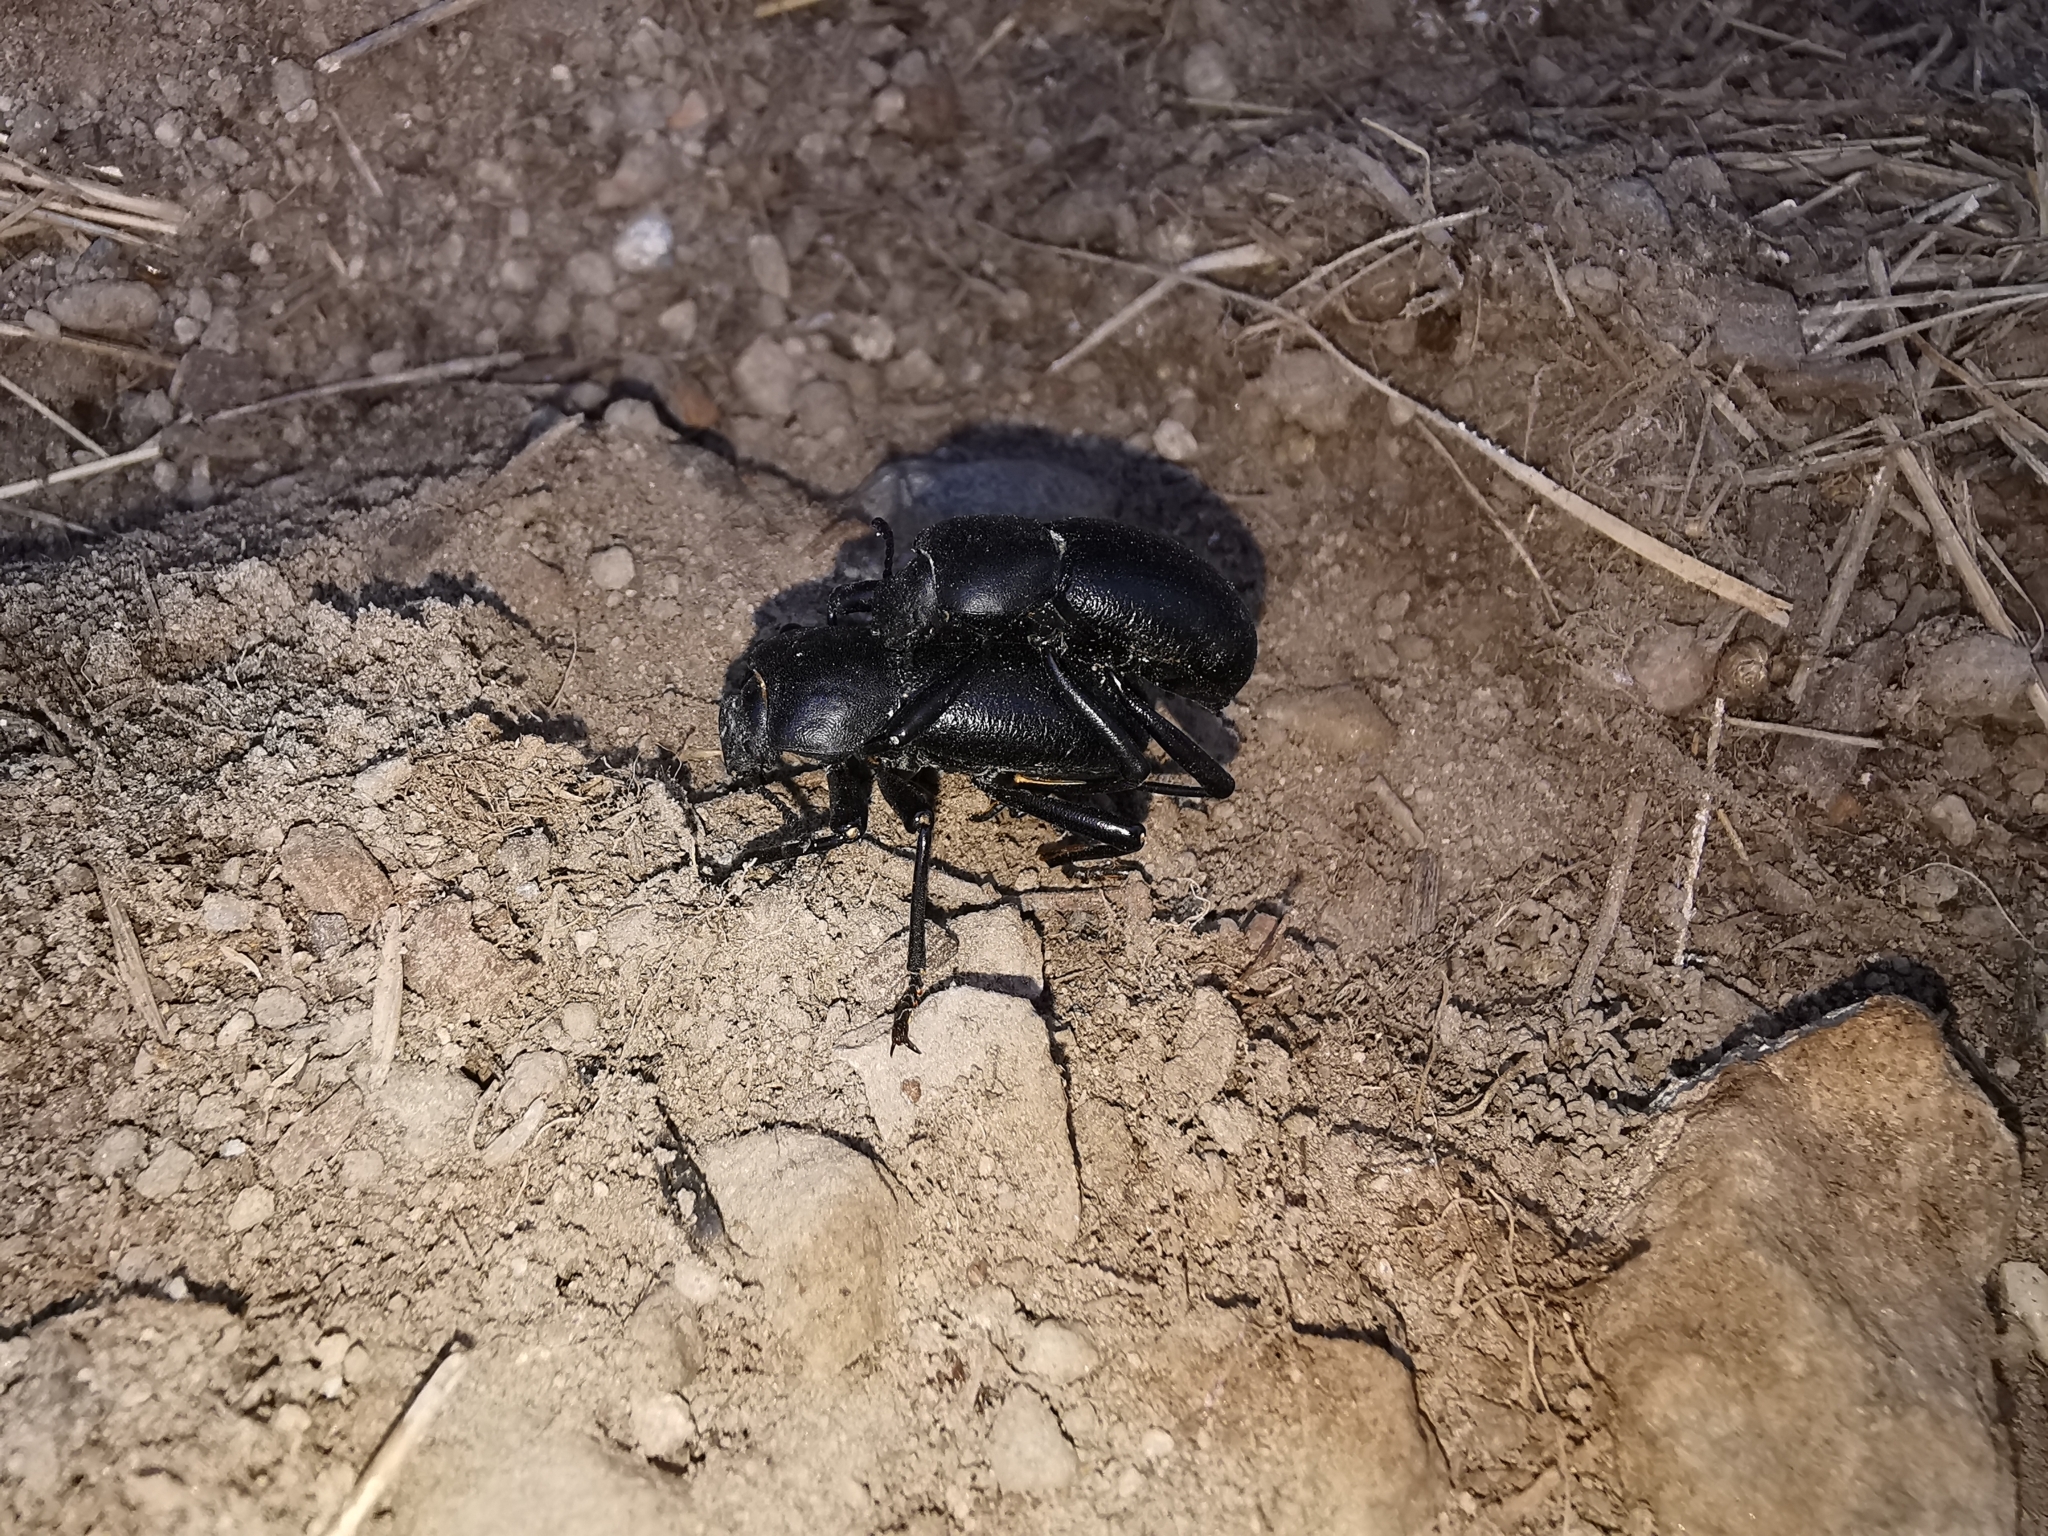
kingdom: Animalia
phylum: Arthropoda
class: Insecta
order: Coleoptera
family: Tenebrionidae
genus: Coelocnemis
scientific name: Coelocnemis dilaticollis
